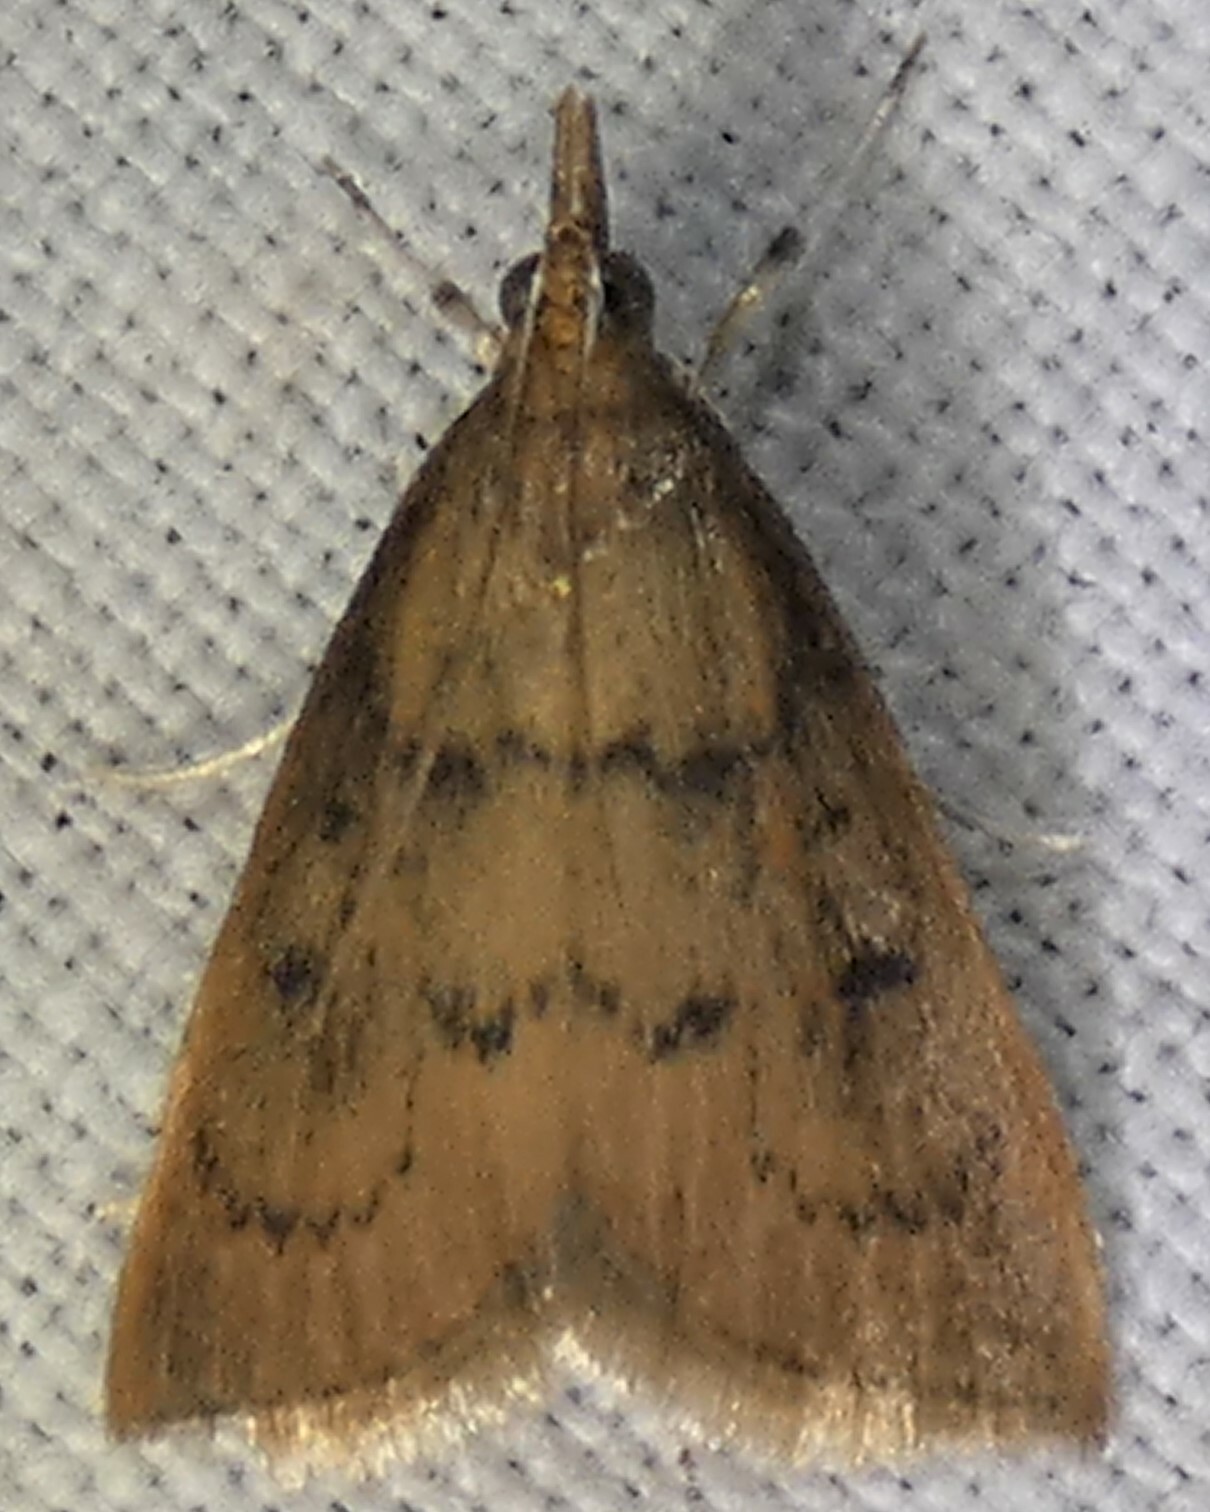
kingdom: Animalia
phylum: Arthropoda
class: Insecta
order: Lepidoptera
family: Crambidae
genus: Oenobotys
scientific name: Oenobotys vinotinctalis
